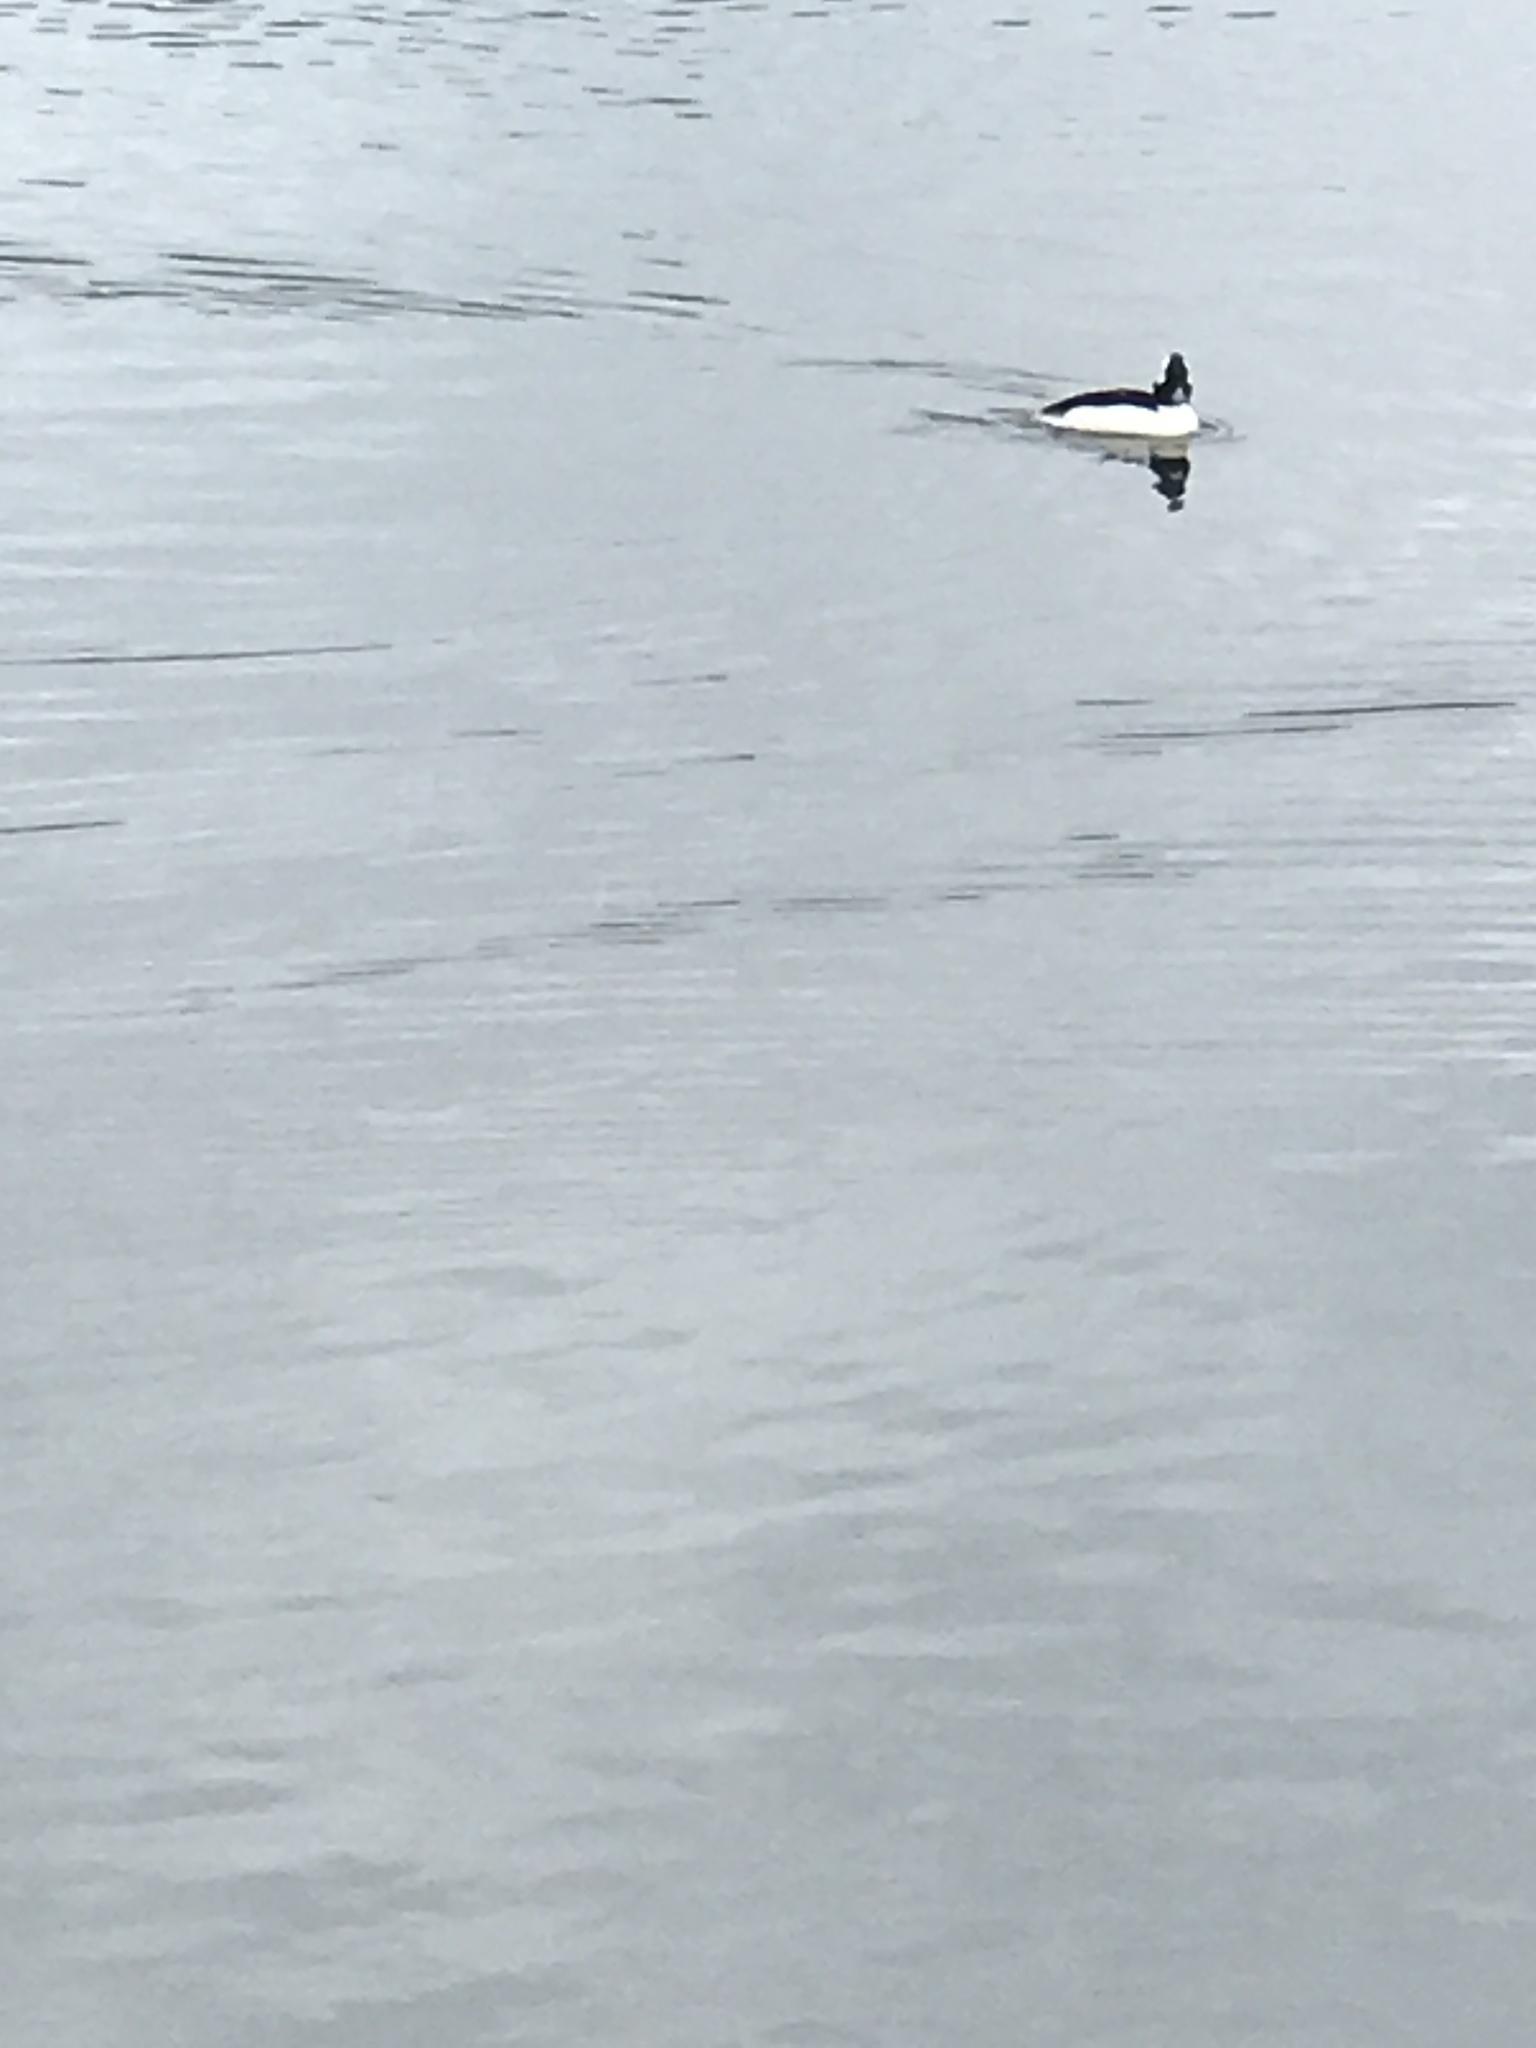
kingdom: Animalia
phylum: Chordata
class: Aves
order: Anseriformes
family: Anatidae
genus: Bucephala
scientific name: Bucephala albeola
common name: Bufflehead
